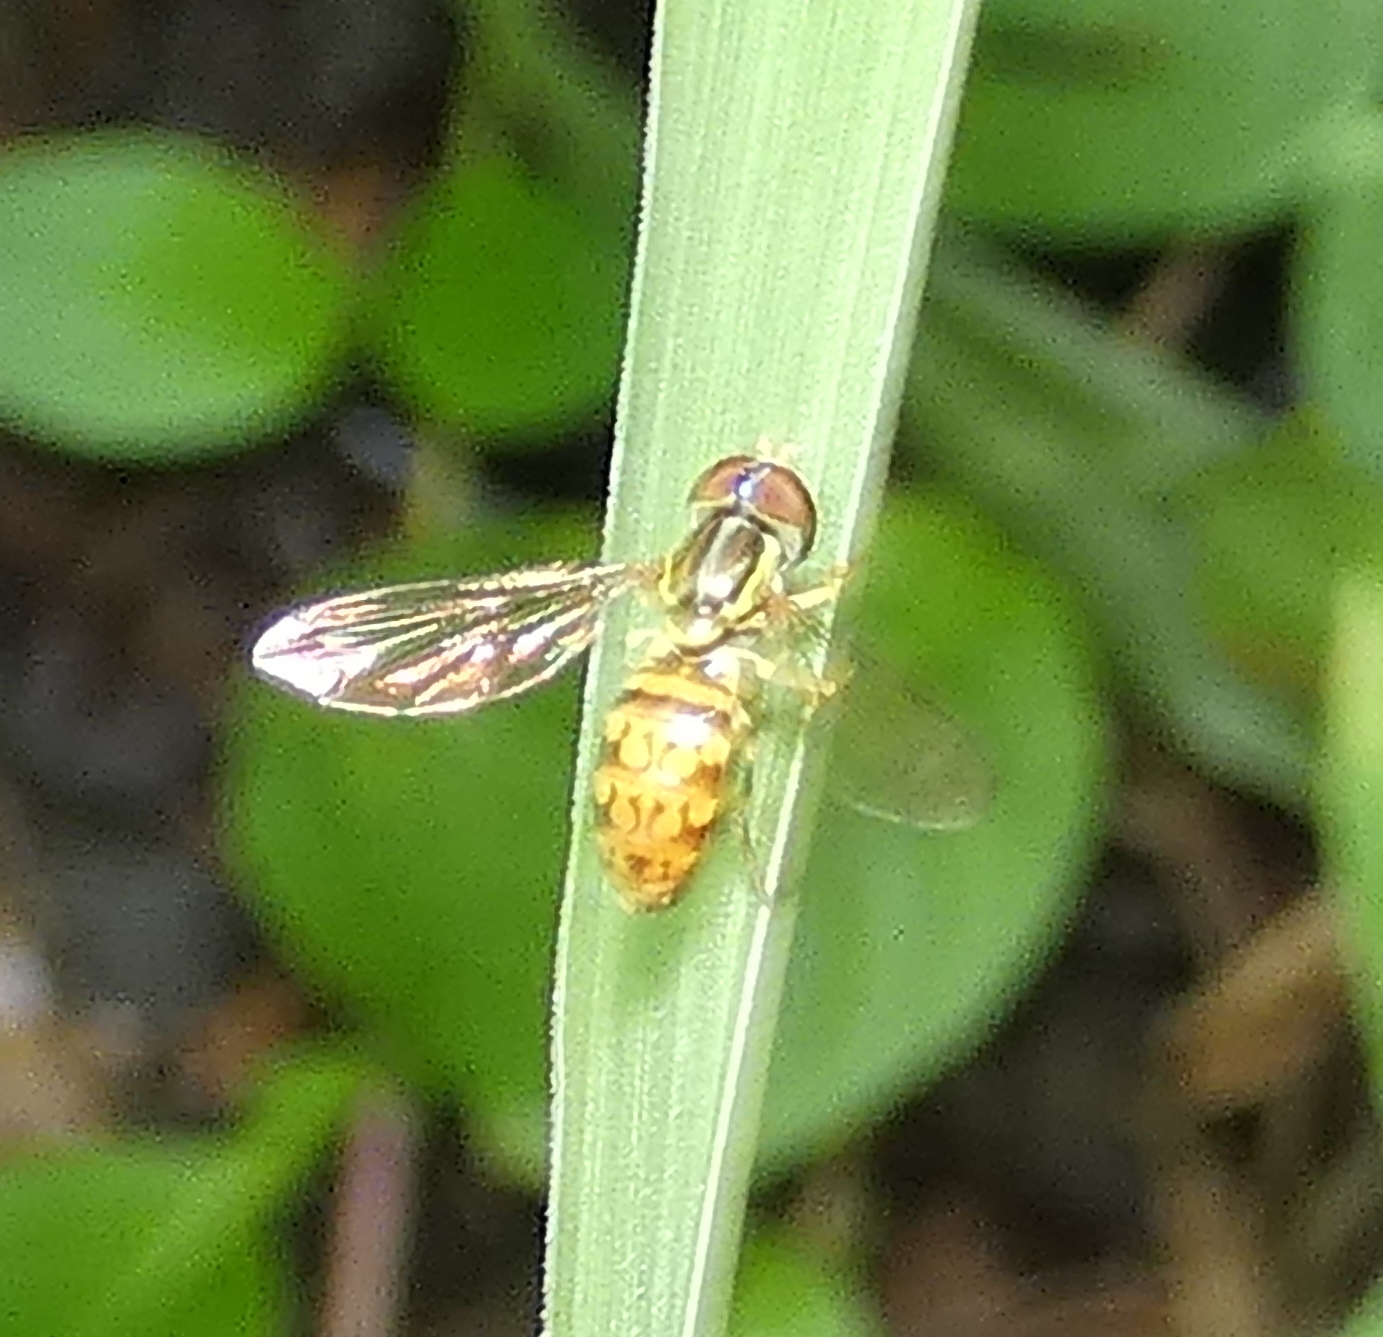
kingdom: Animalia
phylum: Arthropoda
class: Insecta
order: Diptera
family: Syrphidae
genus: Toxomerus
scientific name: Toxomerus pictus
